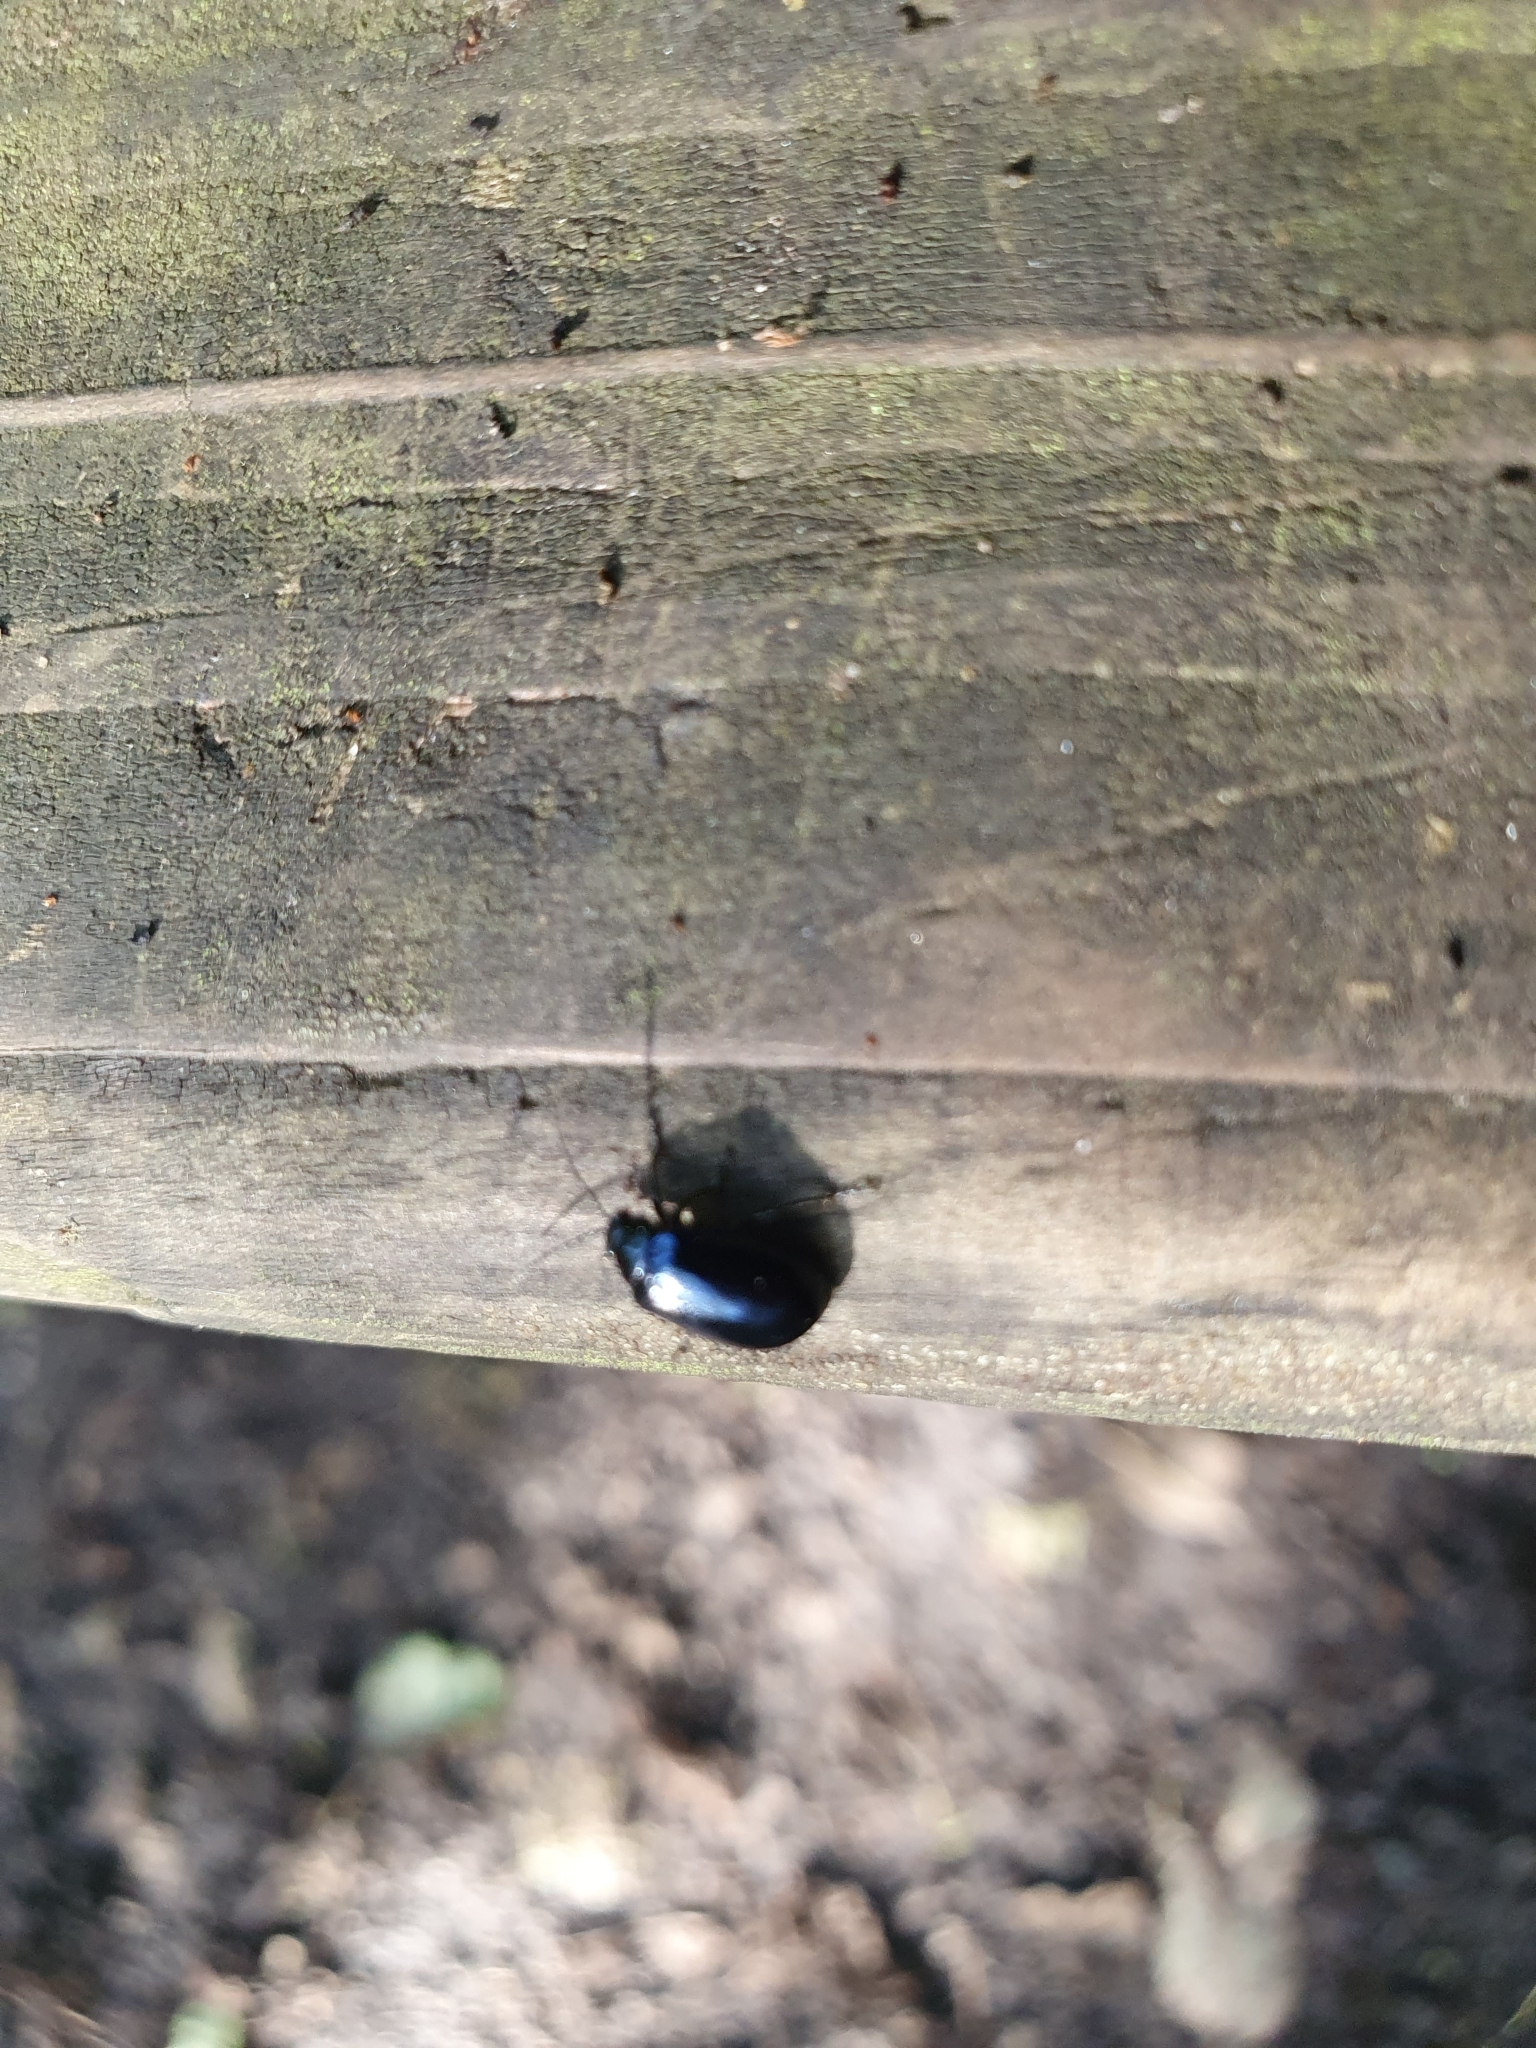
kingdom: Animalia
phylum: Arthropoda
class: Insecta
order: Coleoptera
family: Chrysomelidae
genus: Agelastica
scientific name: Agelastica alni
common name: Alder leaf beetle
